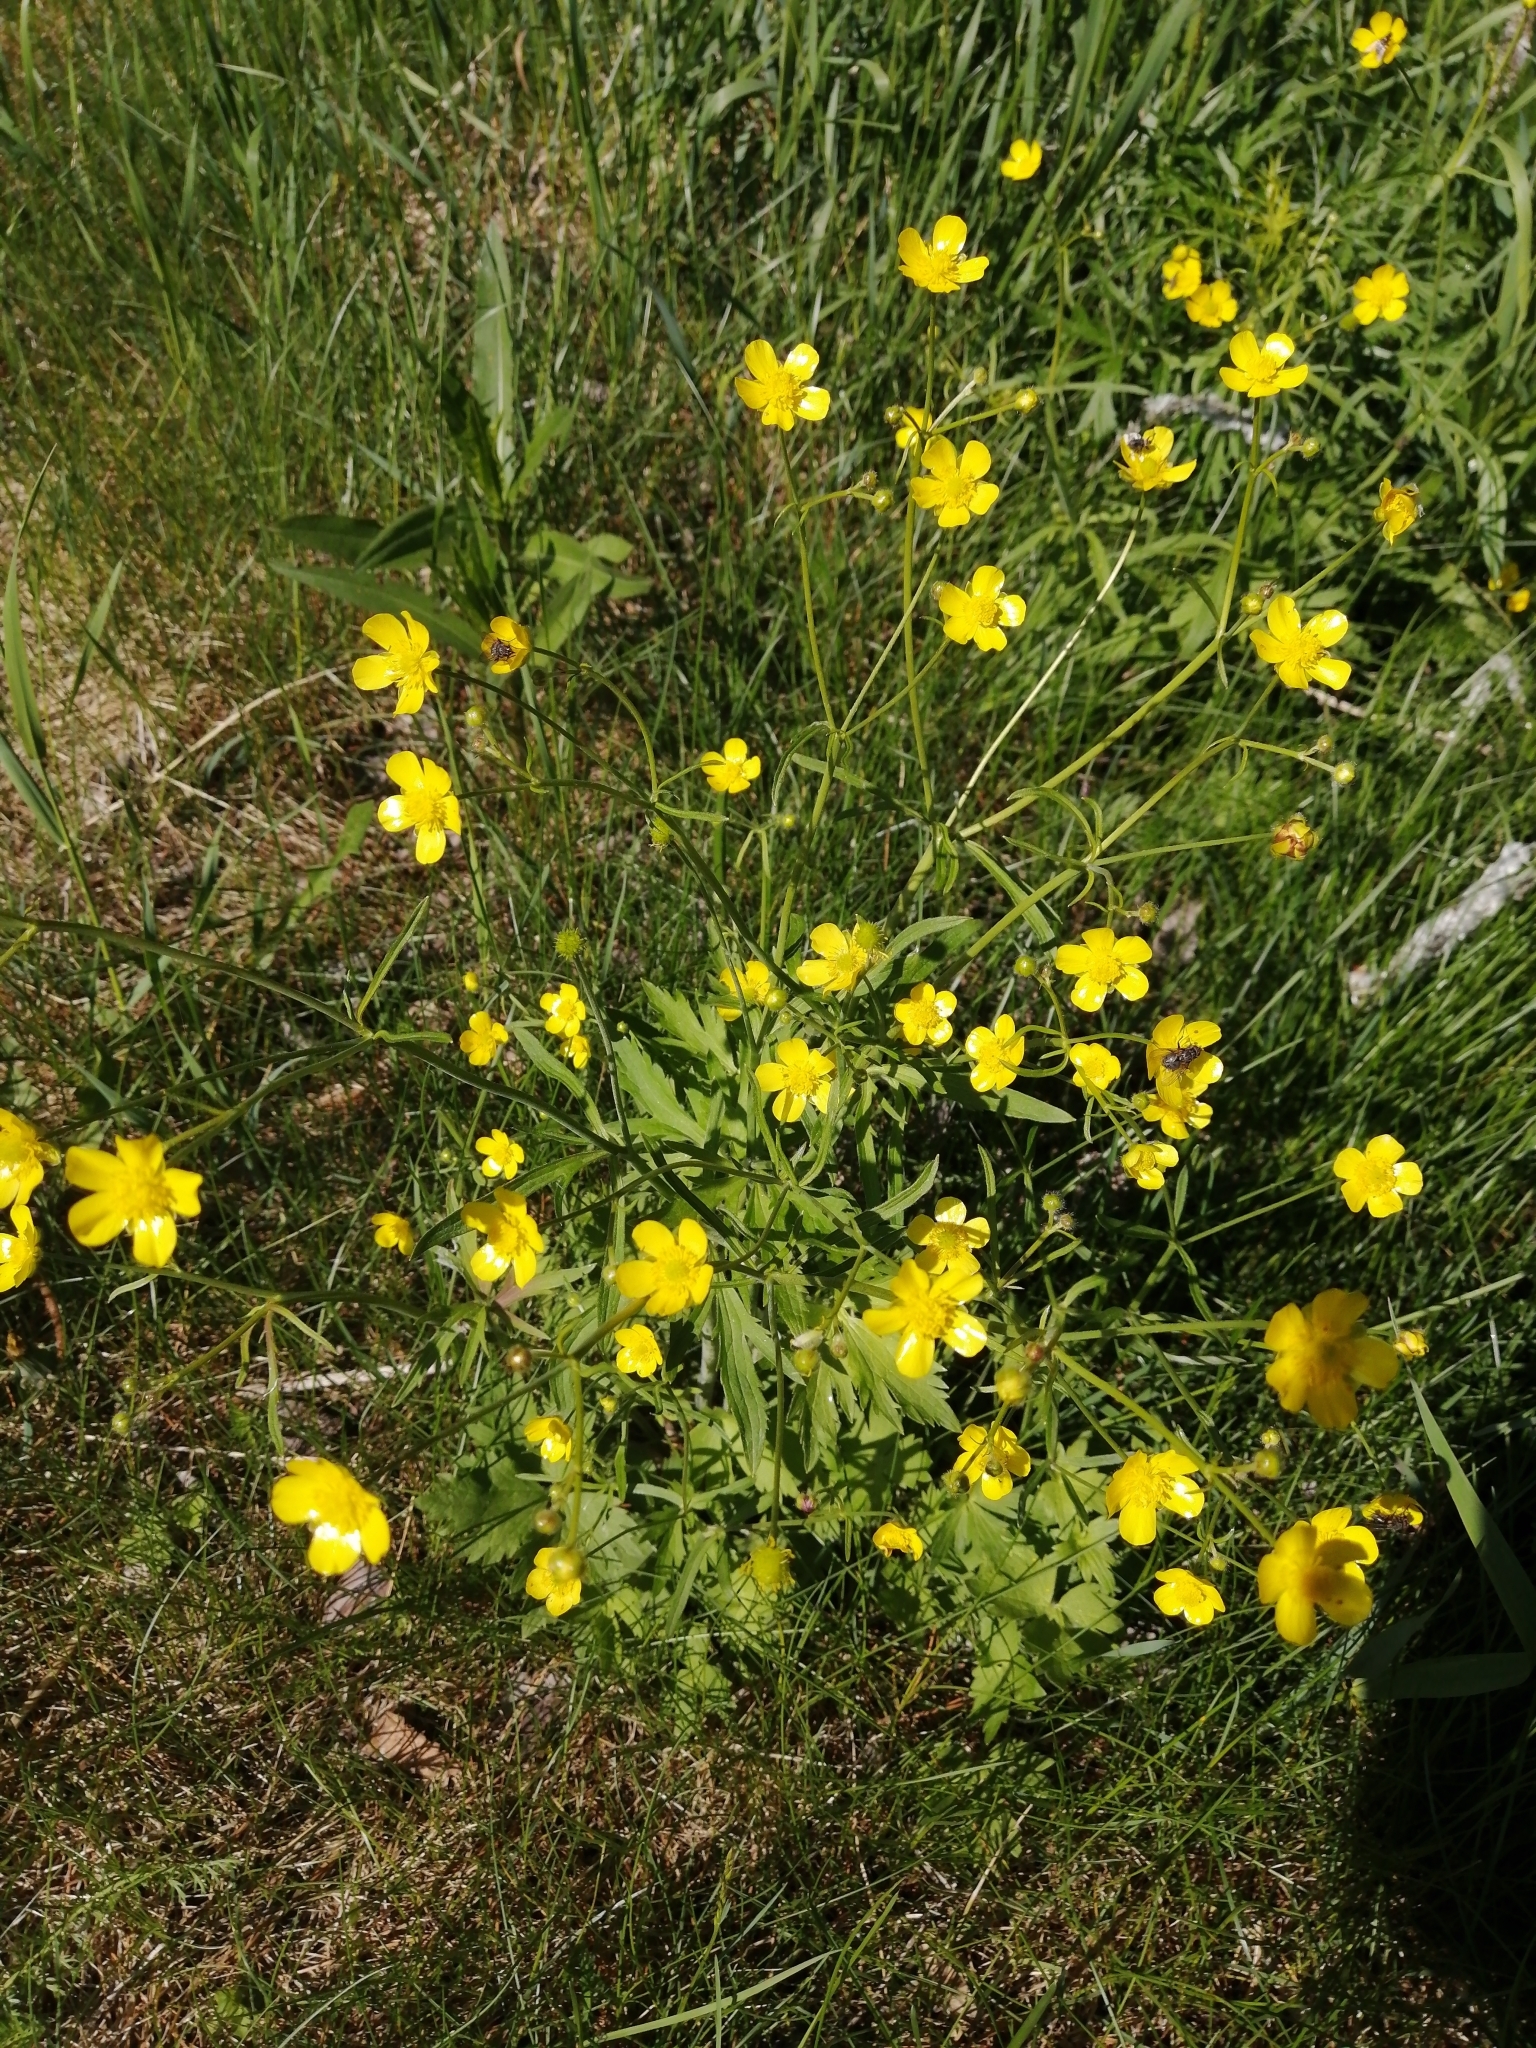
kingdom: Plantae
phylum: Tracheophyta
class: Magnoliopsida
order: Ranunculales
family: Ranunculaceae
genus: Ranunculus
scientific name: Ranunculus acris
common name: Meadow buttercup
